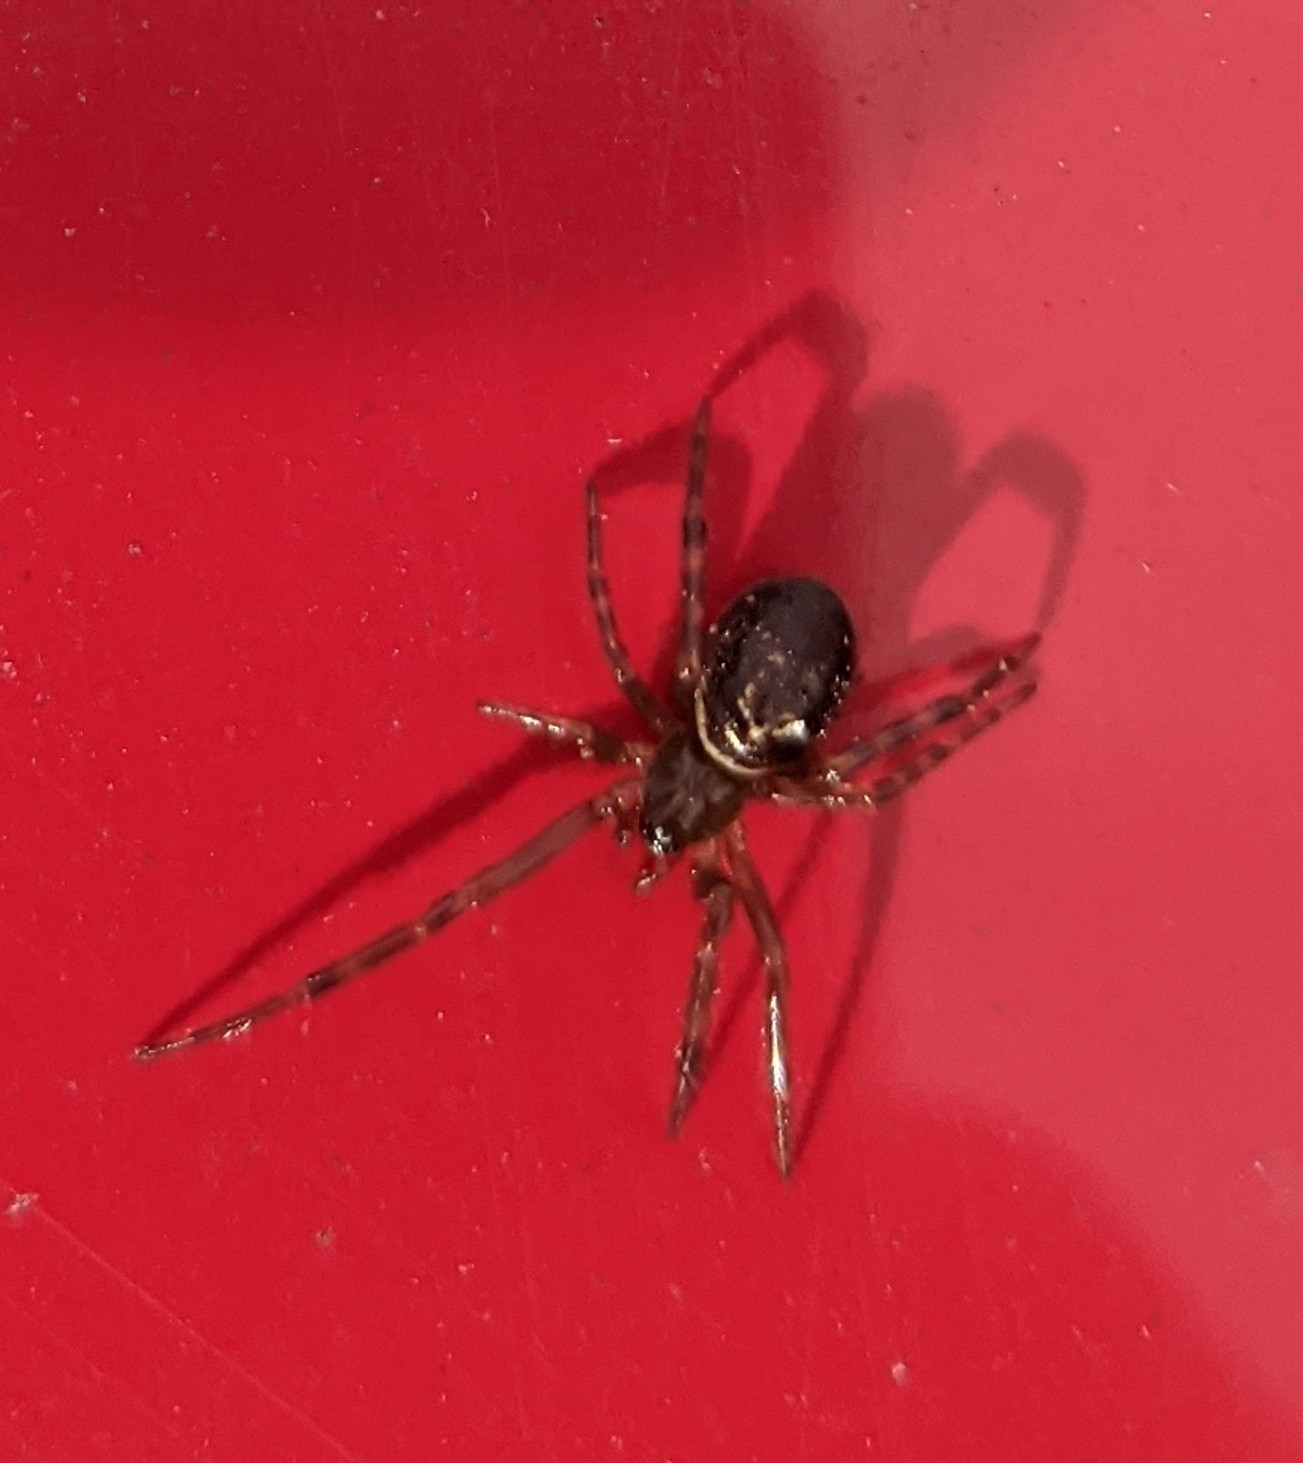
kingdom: Animalia
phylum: Arthropoda
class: Arachnida
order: Araneae
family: Theridiidae
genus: Steatoda
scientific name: Steatoda nobilis
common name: Cobweb weaver
